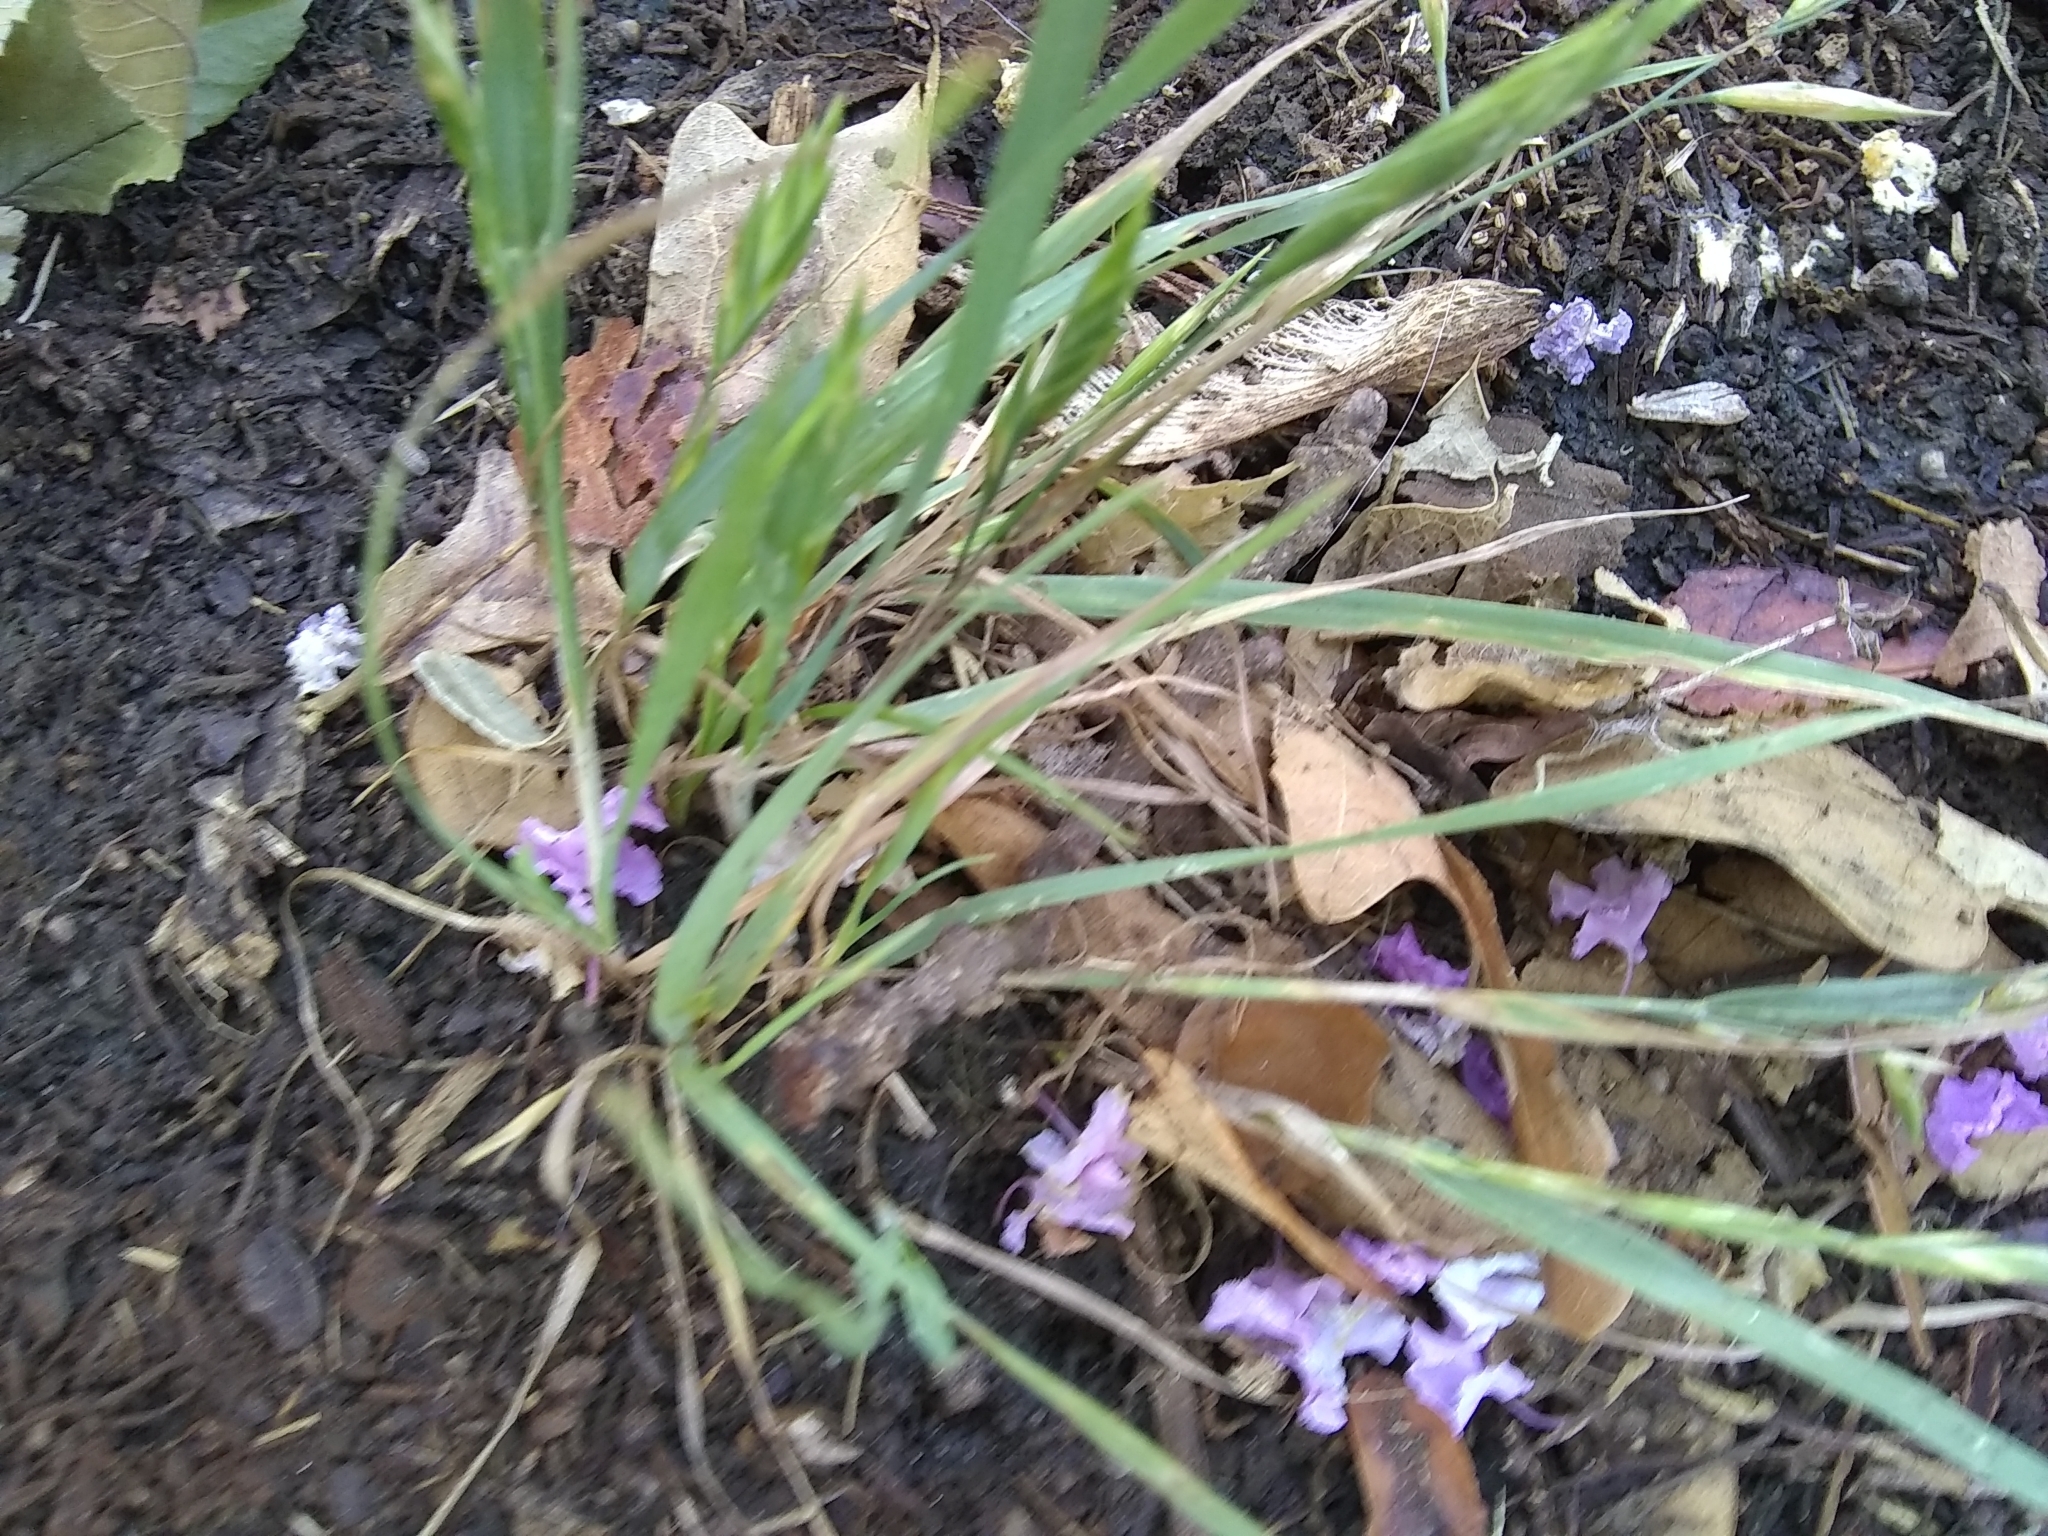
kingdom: Plantae
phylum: Tracheophyta
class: Liliopsida
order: Poales
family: Poaceae
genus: Bromus
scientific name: Bromus catharticus
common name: Rescuegrass
